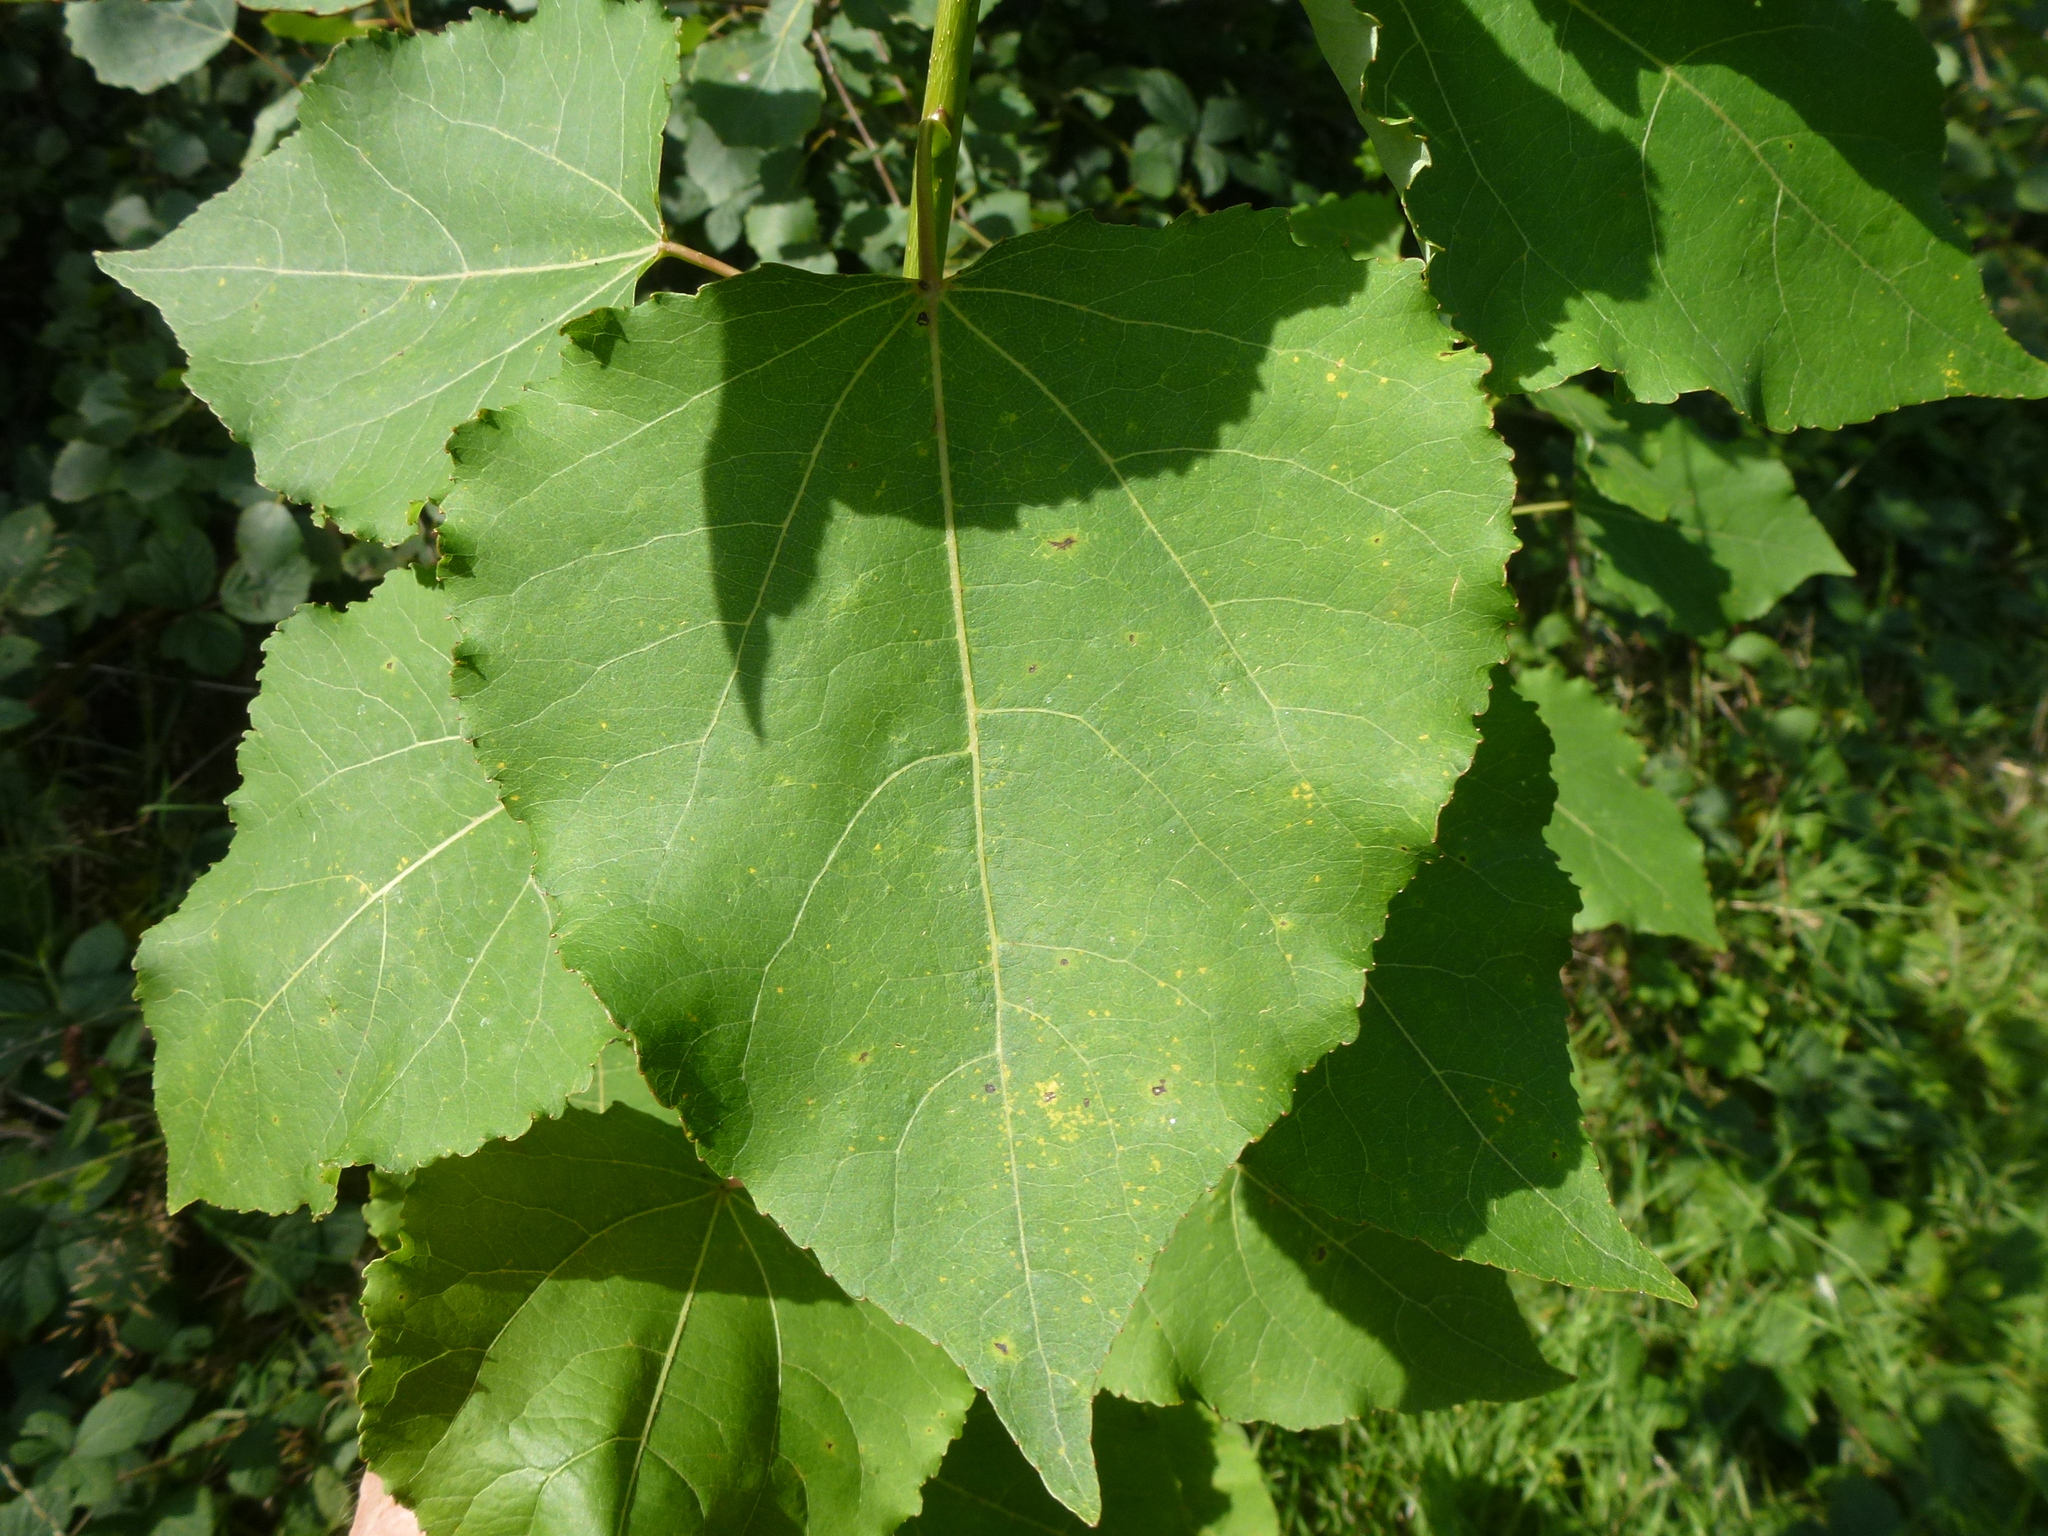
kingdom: Plantae
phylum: Tracheophyta
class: Magnoliopsida
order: Malpighiales
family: Salicaceae
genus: Populus
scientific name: Populus tremula
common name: European aspen
